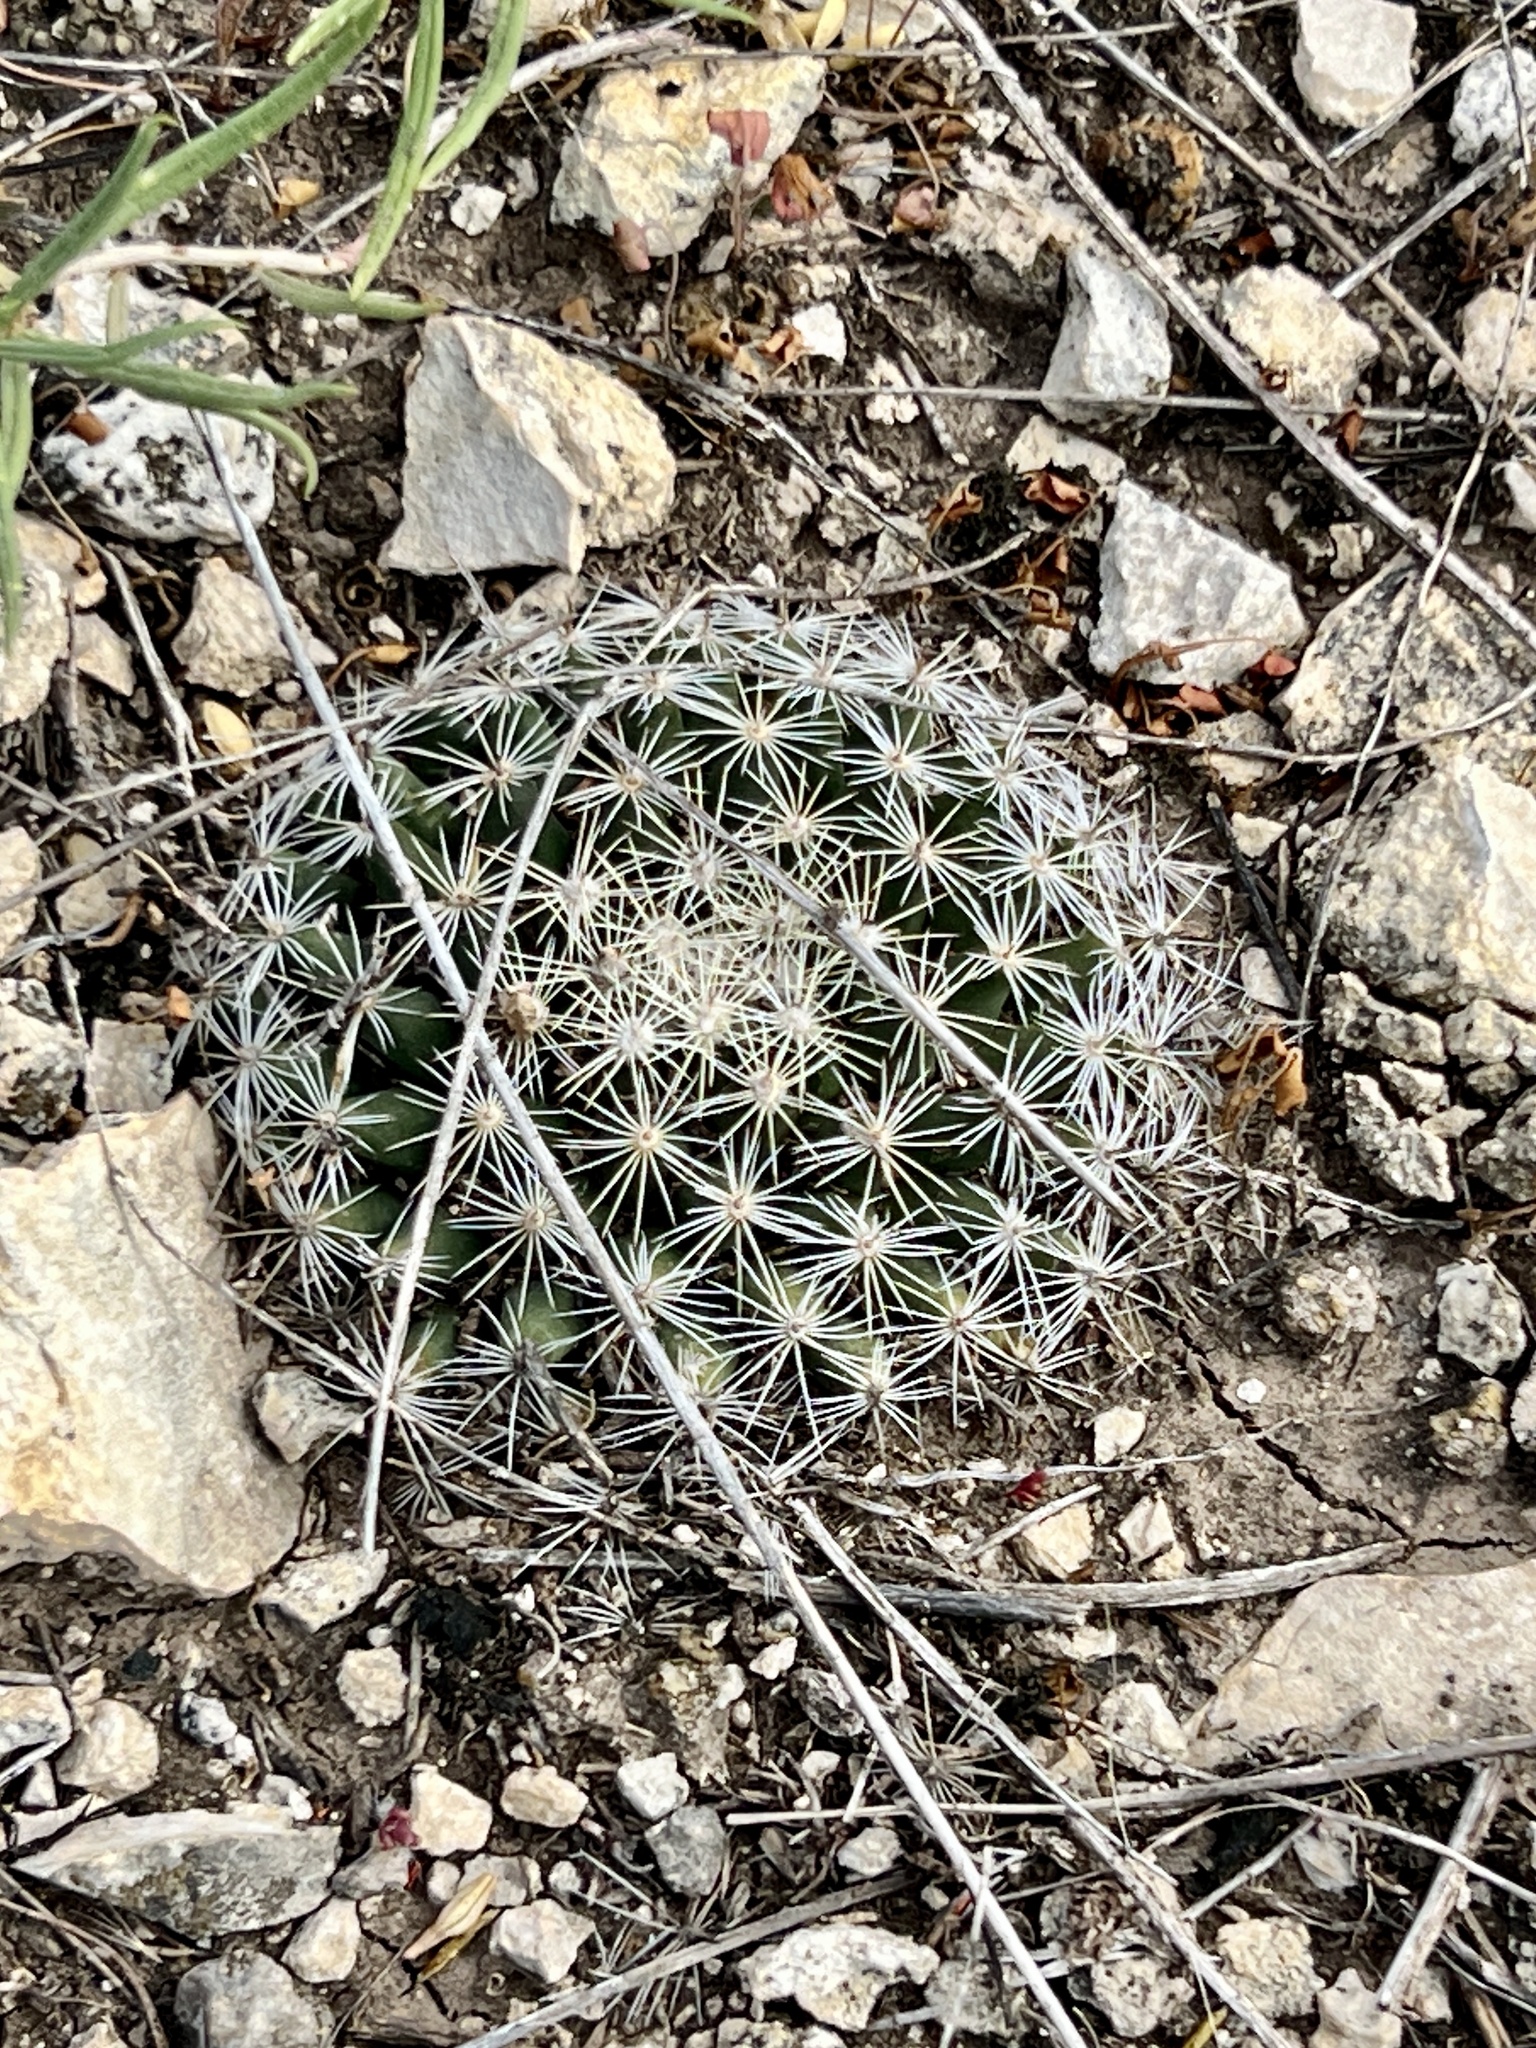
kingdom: Plantae
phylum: Tracheophyta
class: Magnoliopsida
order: Caryophyllales
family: Cactaceae
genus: Mammillaria
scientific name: Mammillaria heyderi
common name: Little nipple cactus
